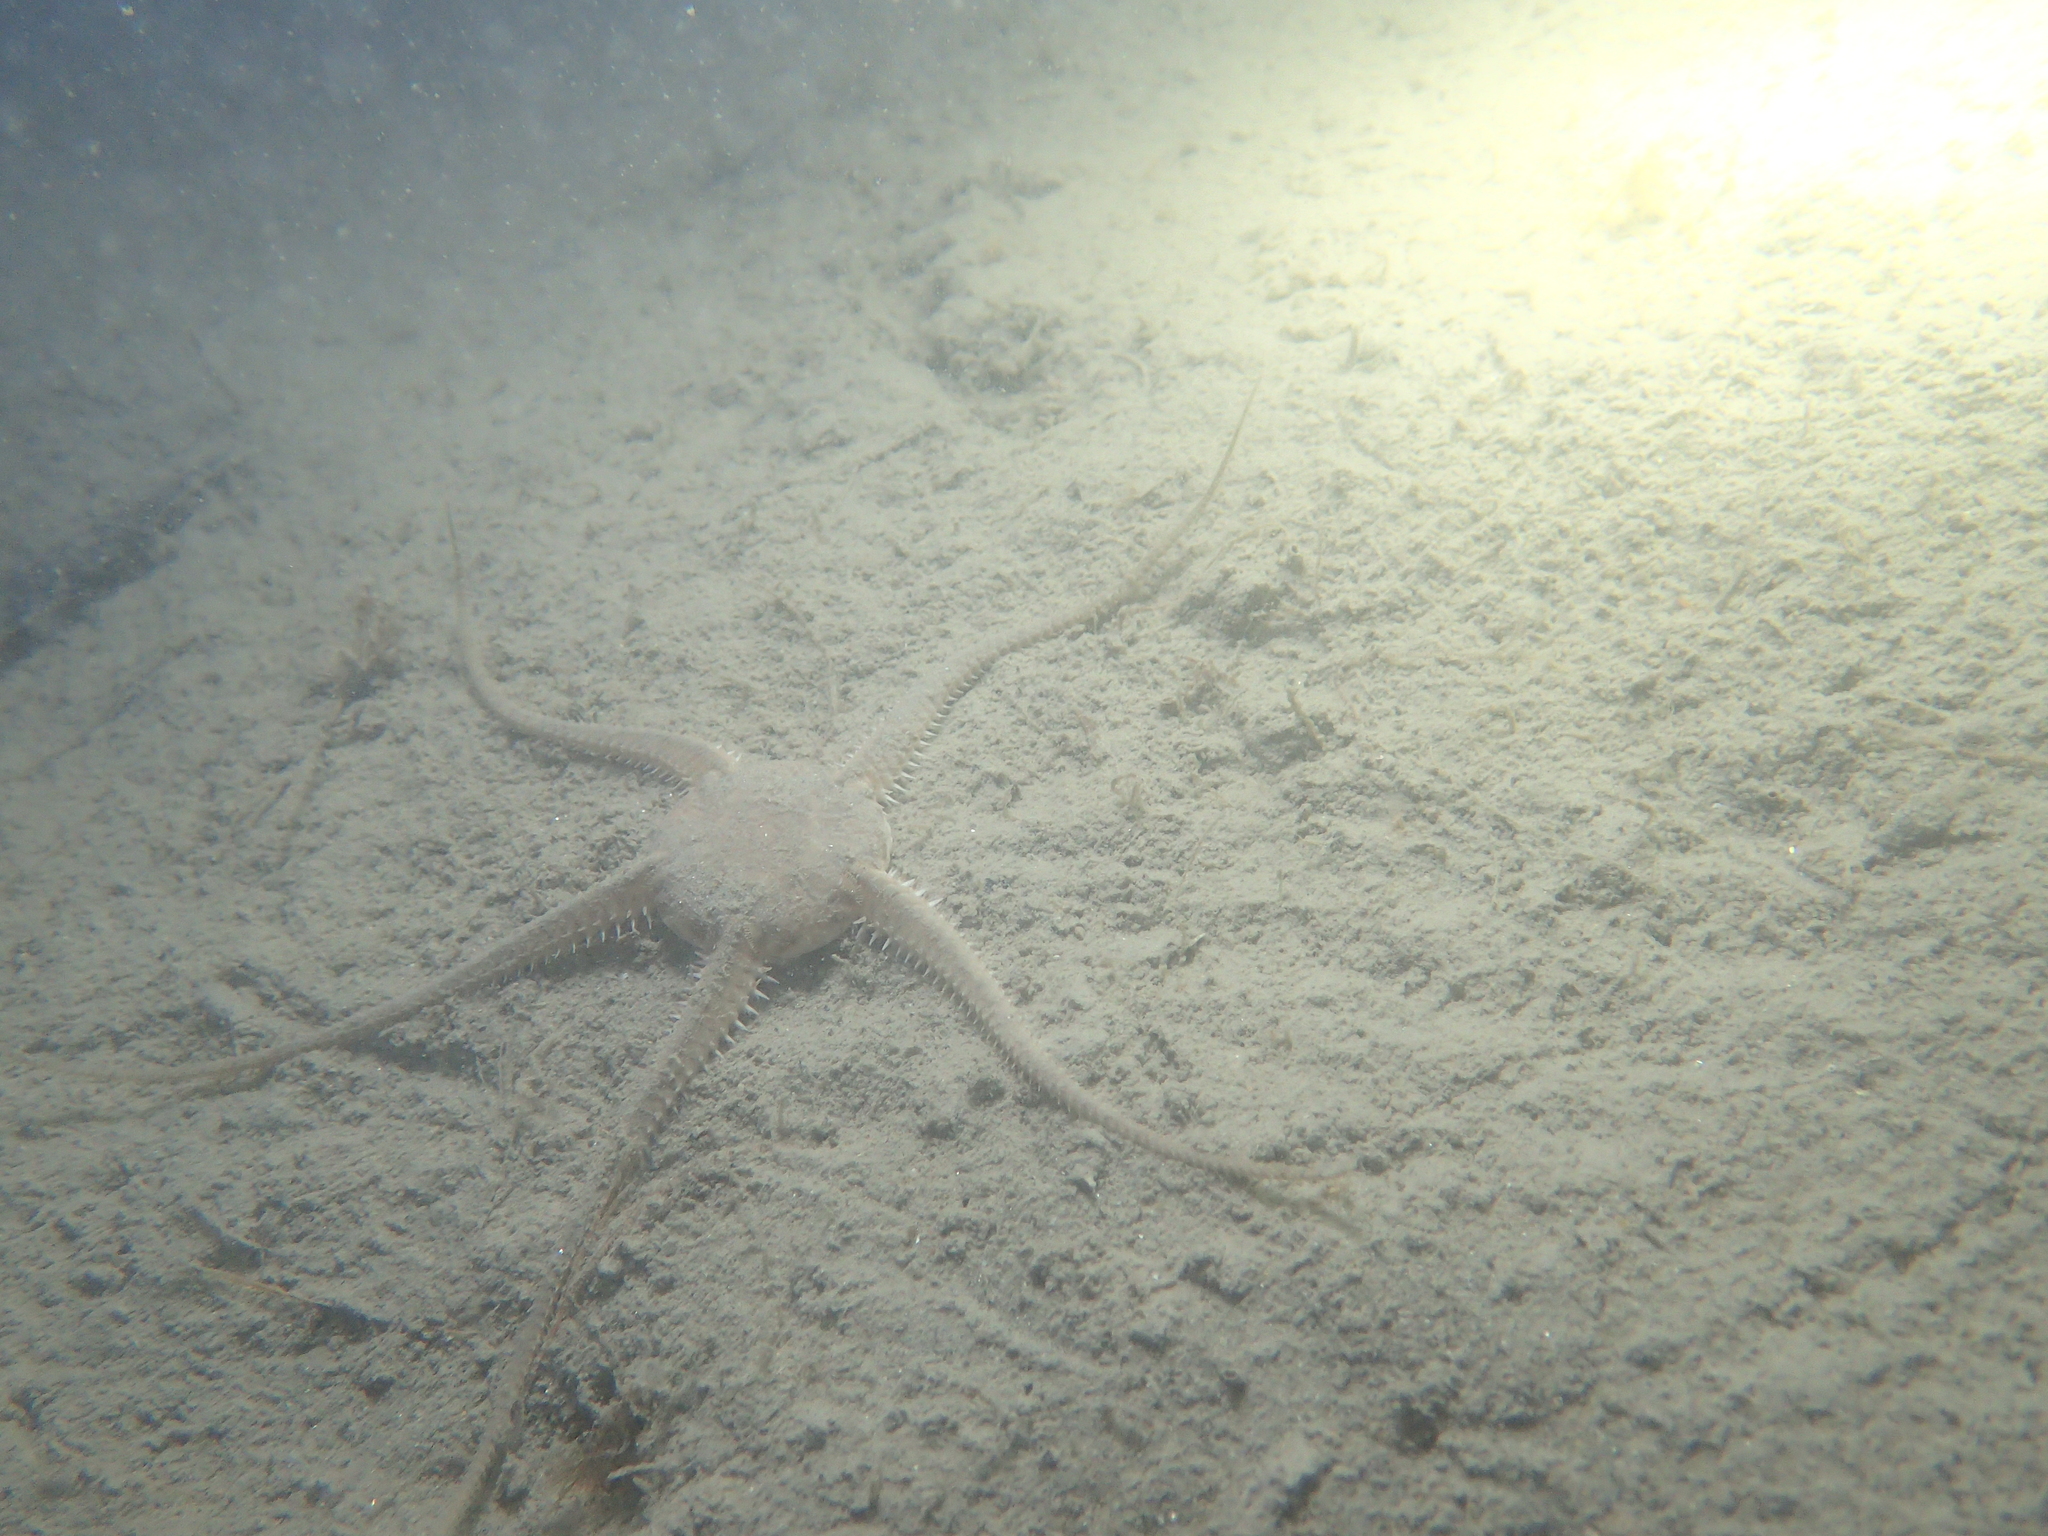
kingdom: Animalia
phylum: Echinodermata
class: Ophiuroidea
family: Ophiuridae
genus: Ophiura
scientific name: Ophiura ophiura
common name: Serpent star
